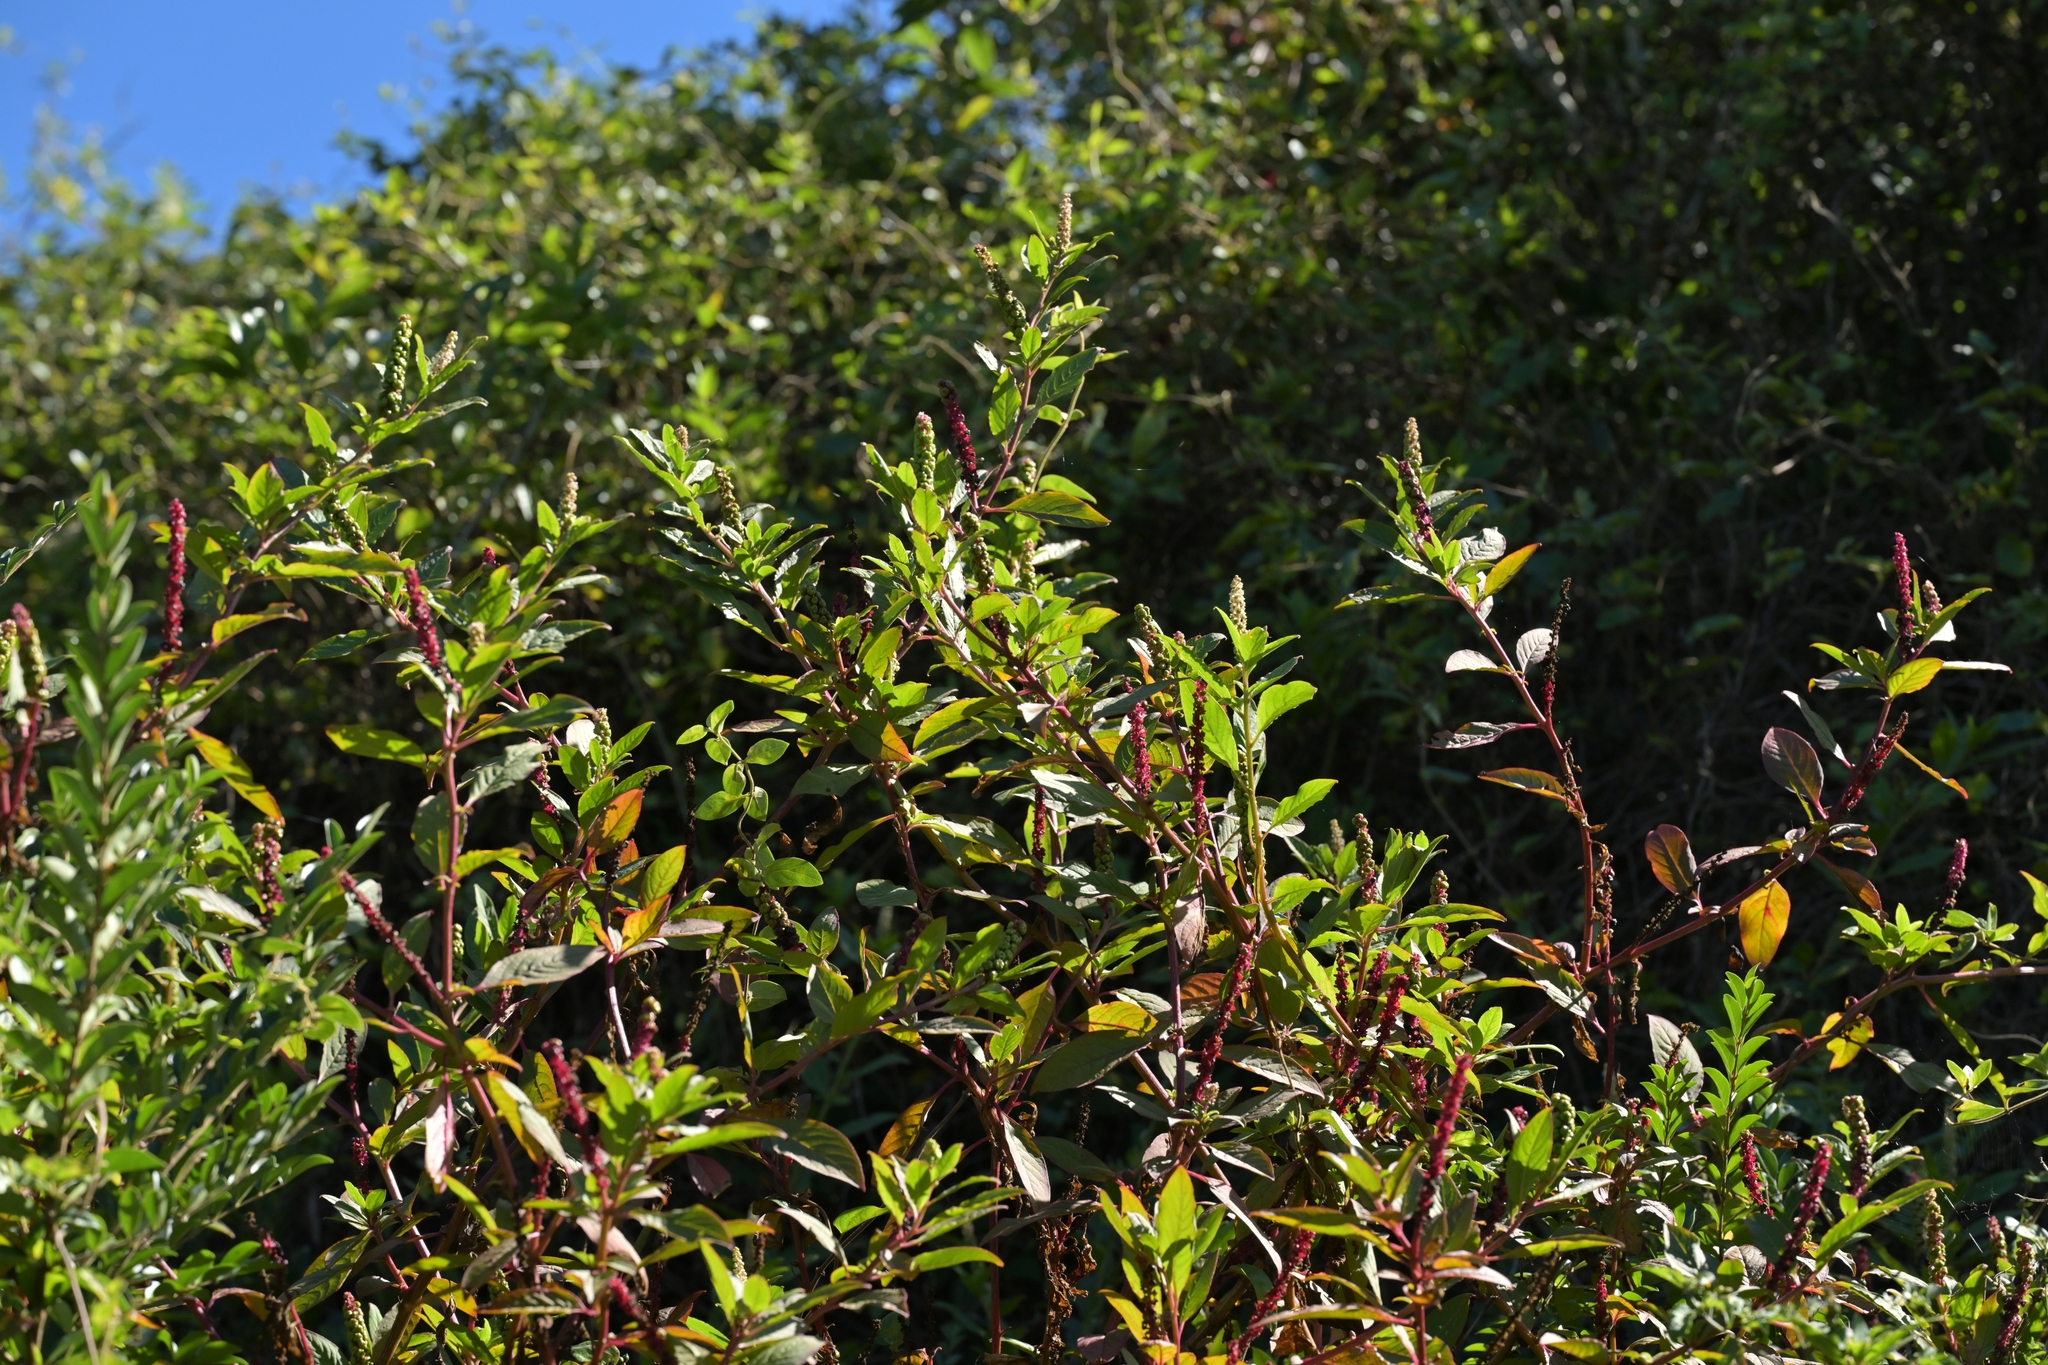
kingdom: Plantae
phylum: Tracheophyta
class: Magnoliopsida
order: Caryophyllales
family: Phytolaccaceae
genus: Phytolacca
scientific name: Phytolacca icosandra
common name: Button pokeweed
